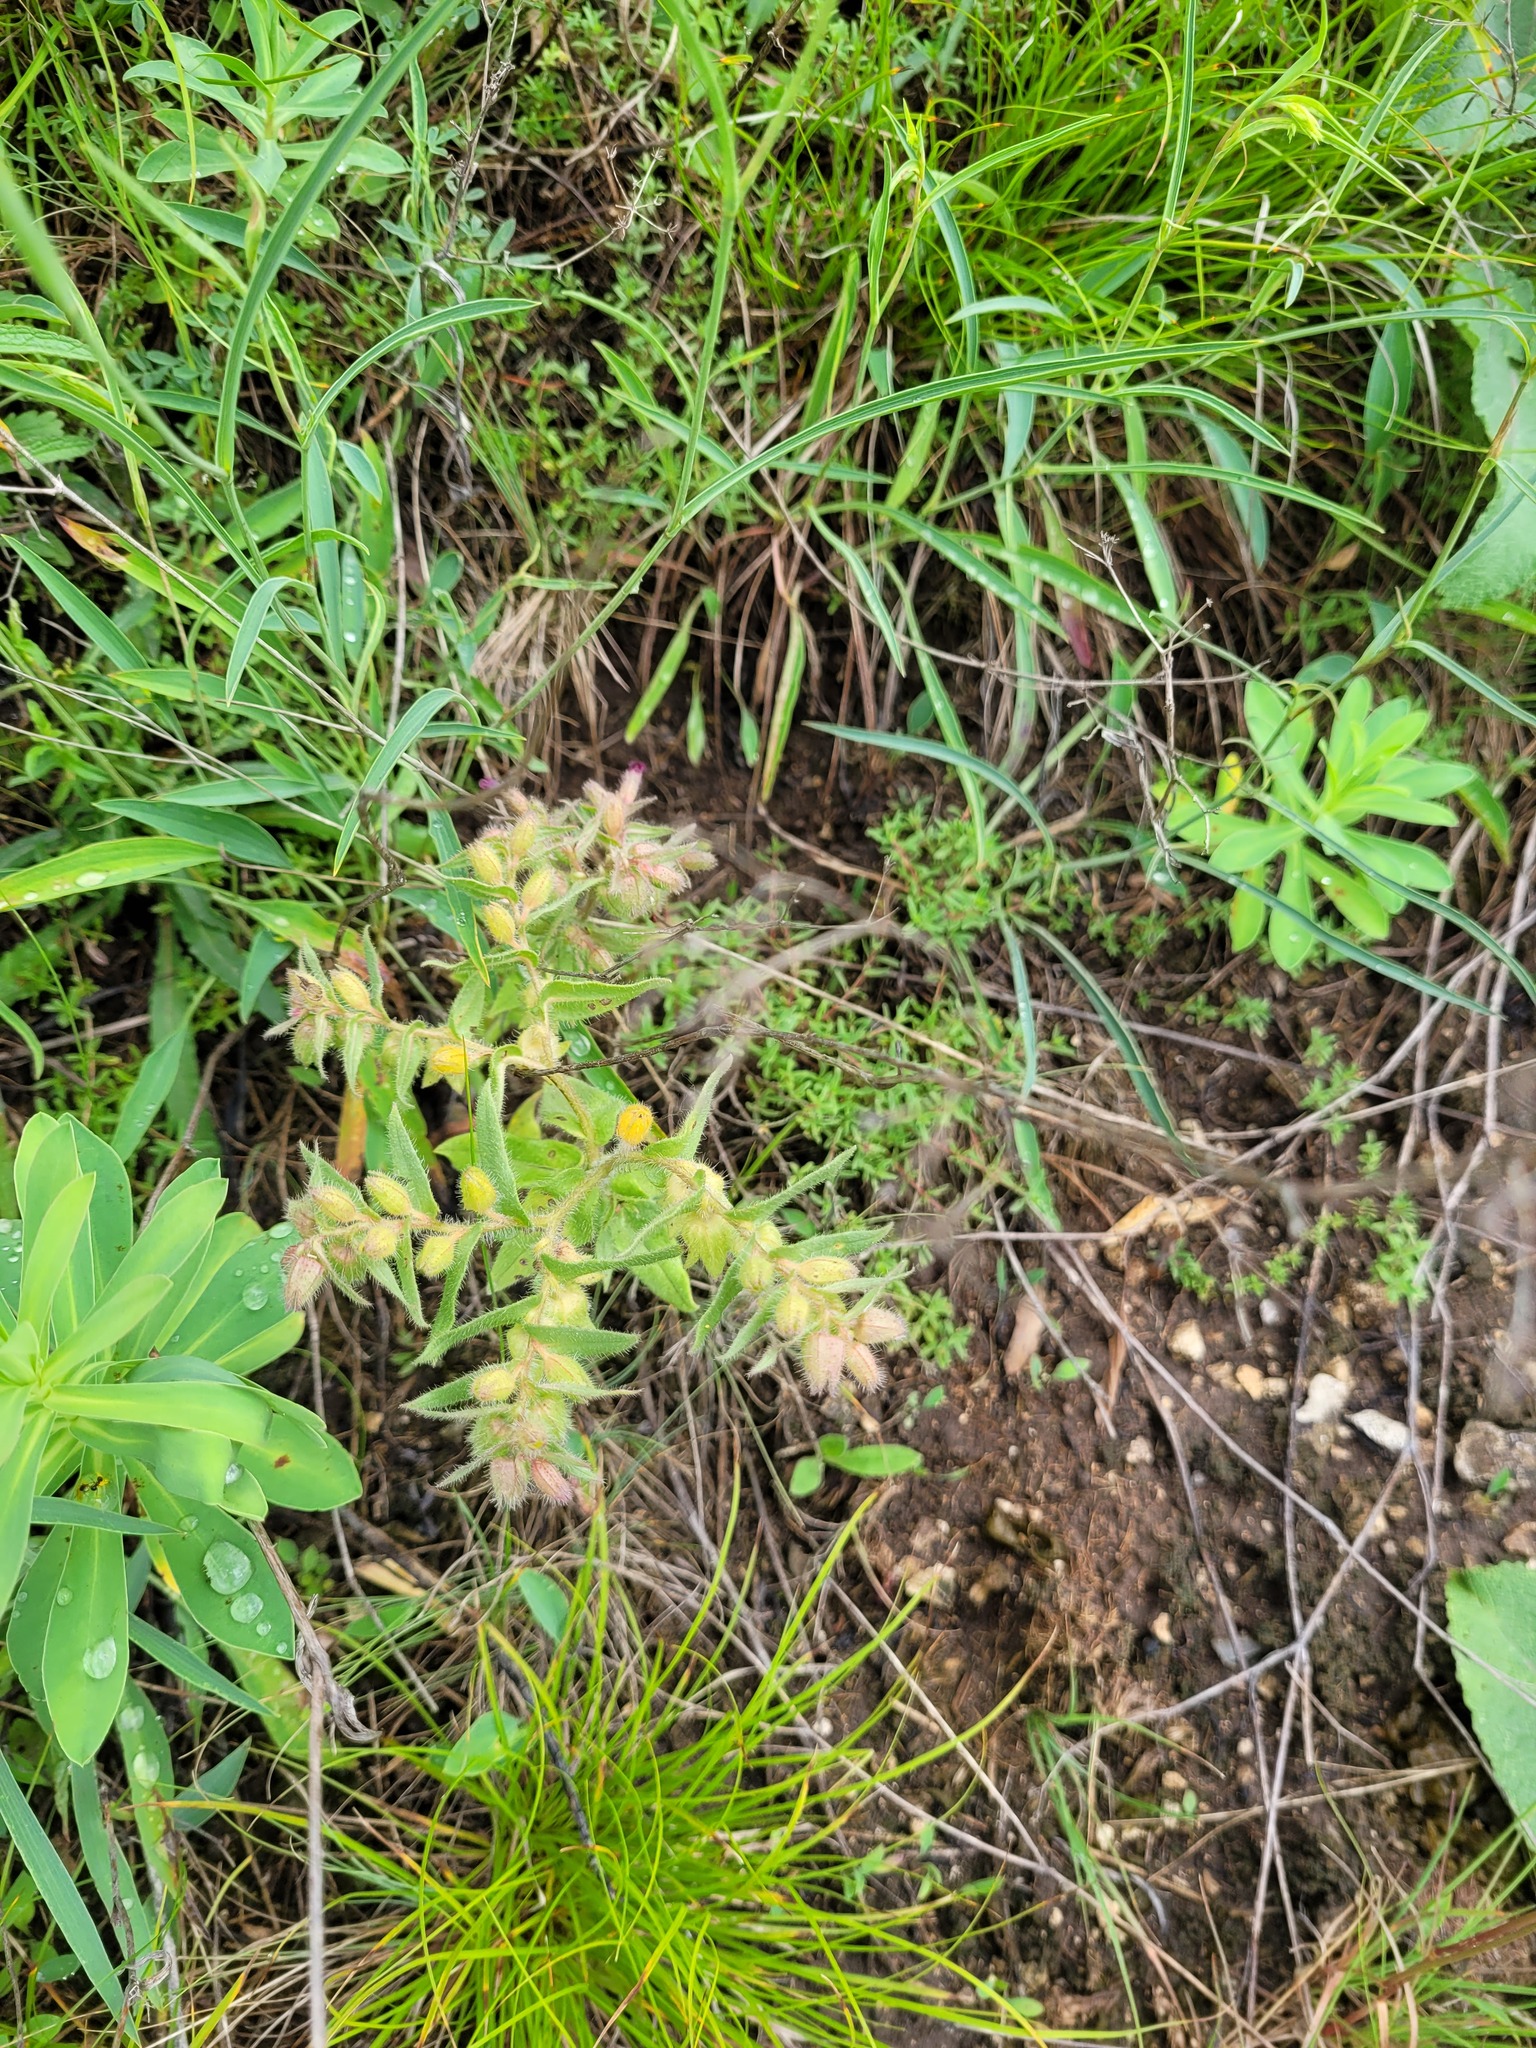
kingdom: Plantae
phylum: Tracheophyta
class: Magnoliopsida
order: Boraginales
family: Boraginaceae
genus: Nonea
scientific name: Nonea pulla
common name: Brown nonea
